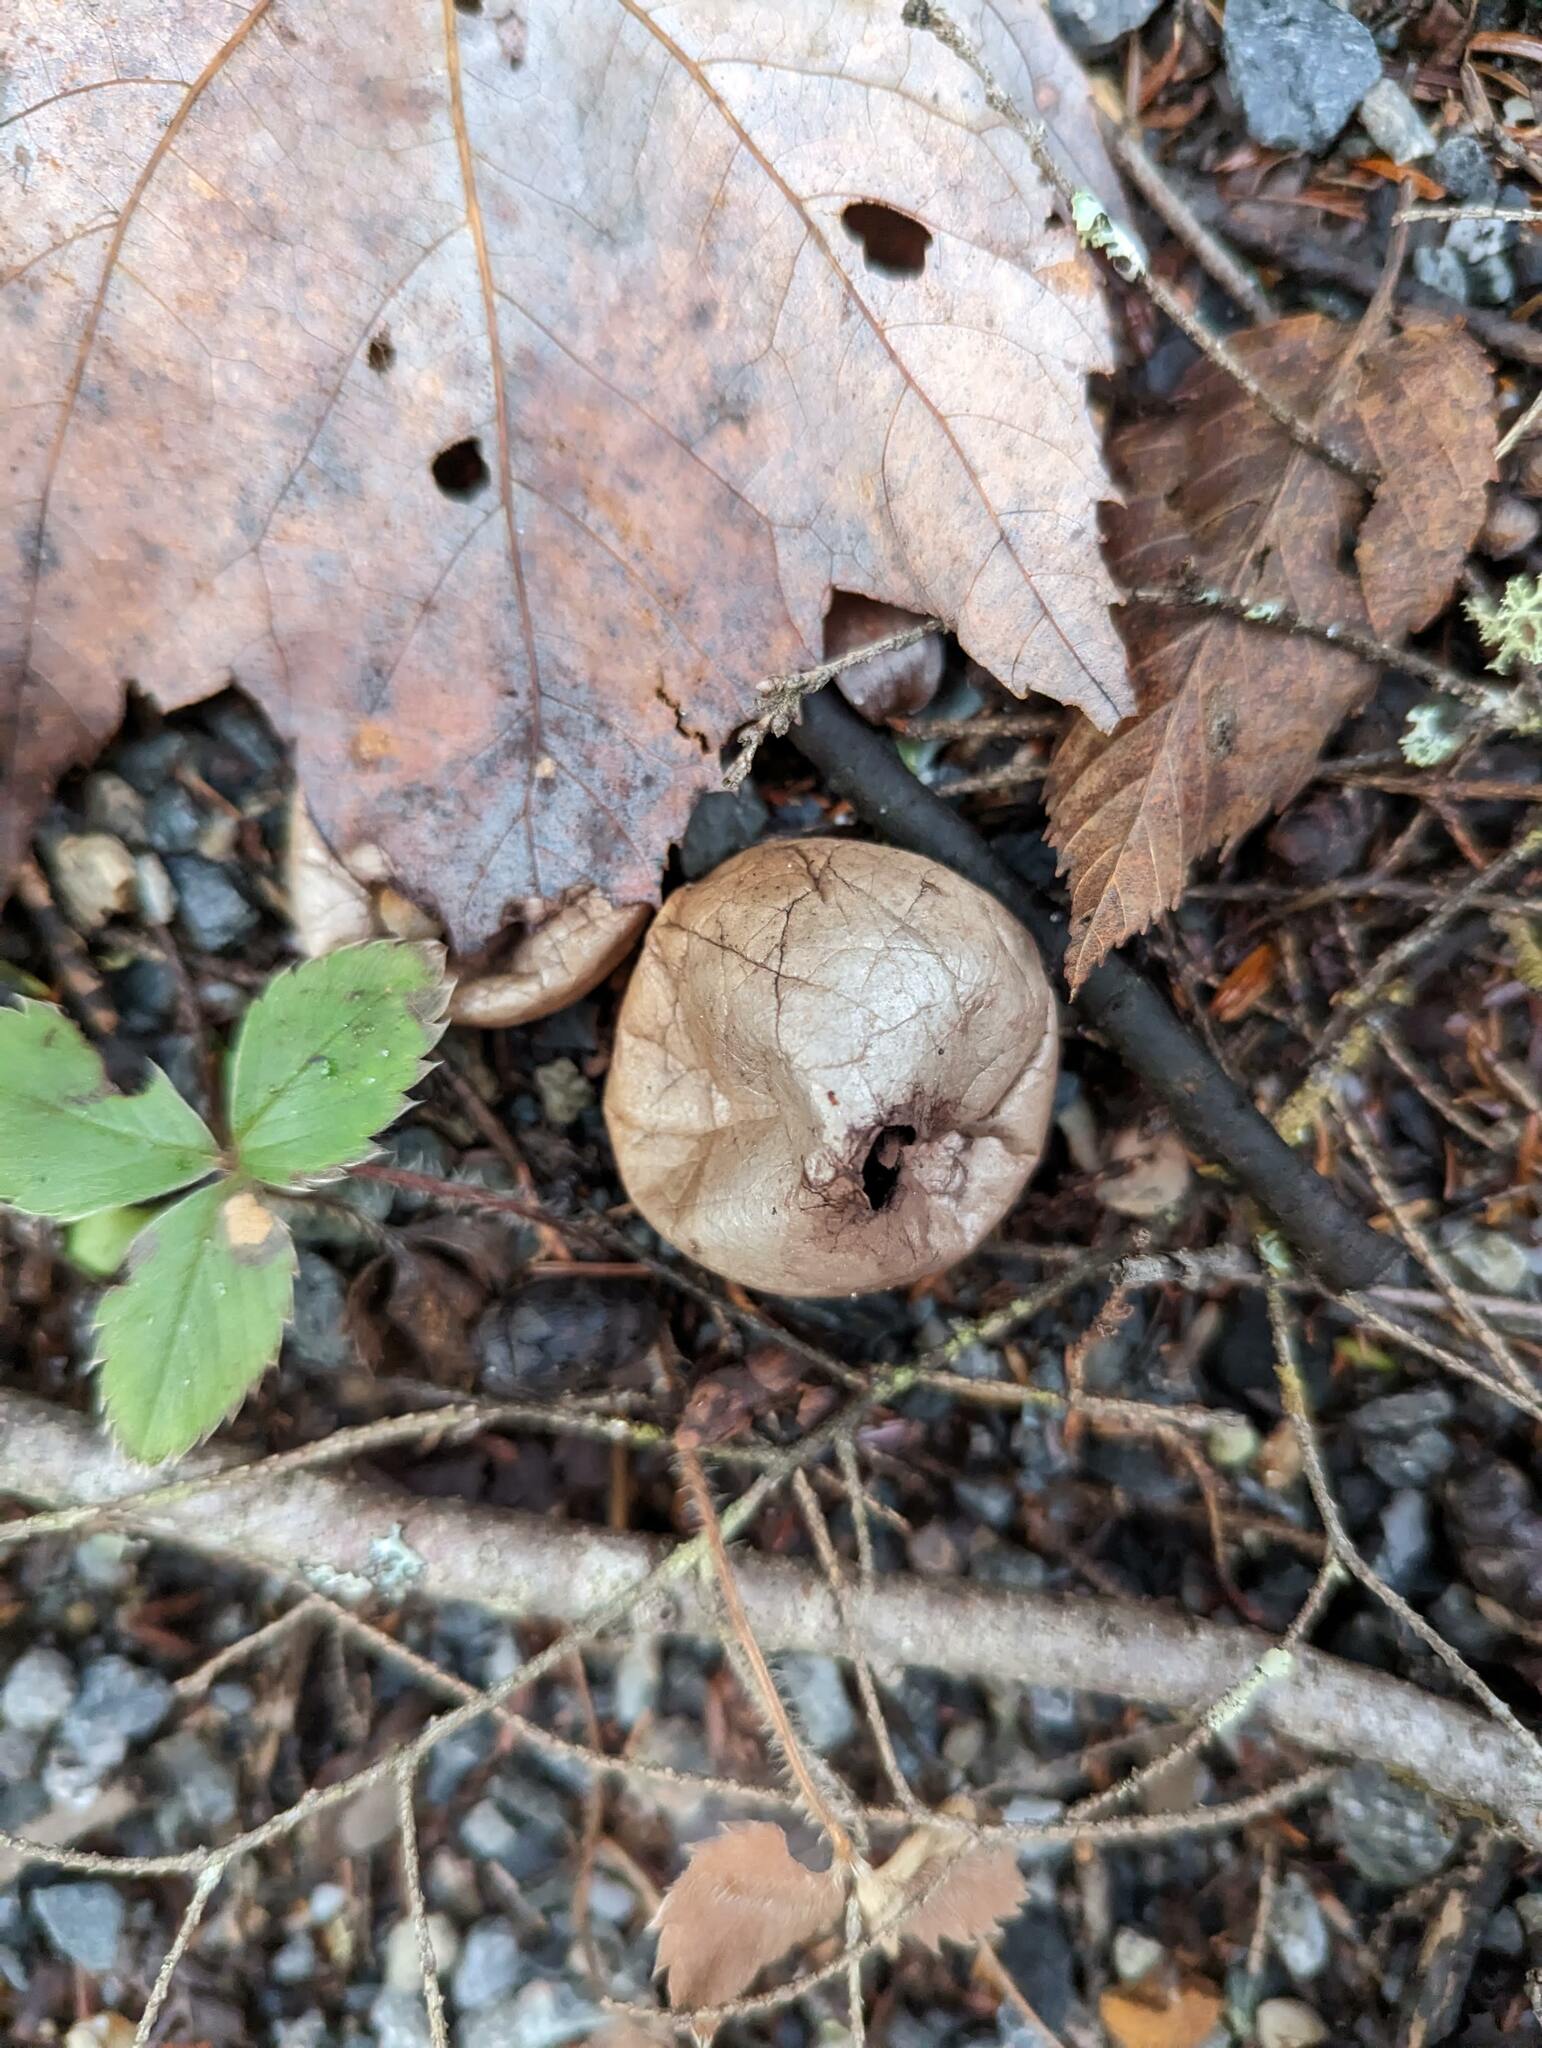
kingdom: Fungi
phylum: Basidiomycota
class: Agaricomycetes
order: Agaricales
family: Lycoperdaceae
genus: Apioperdon
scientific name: Apioperdon pyriforme
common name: Pear-shaped puffball
